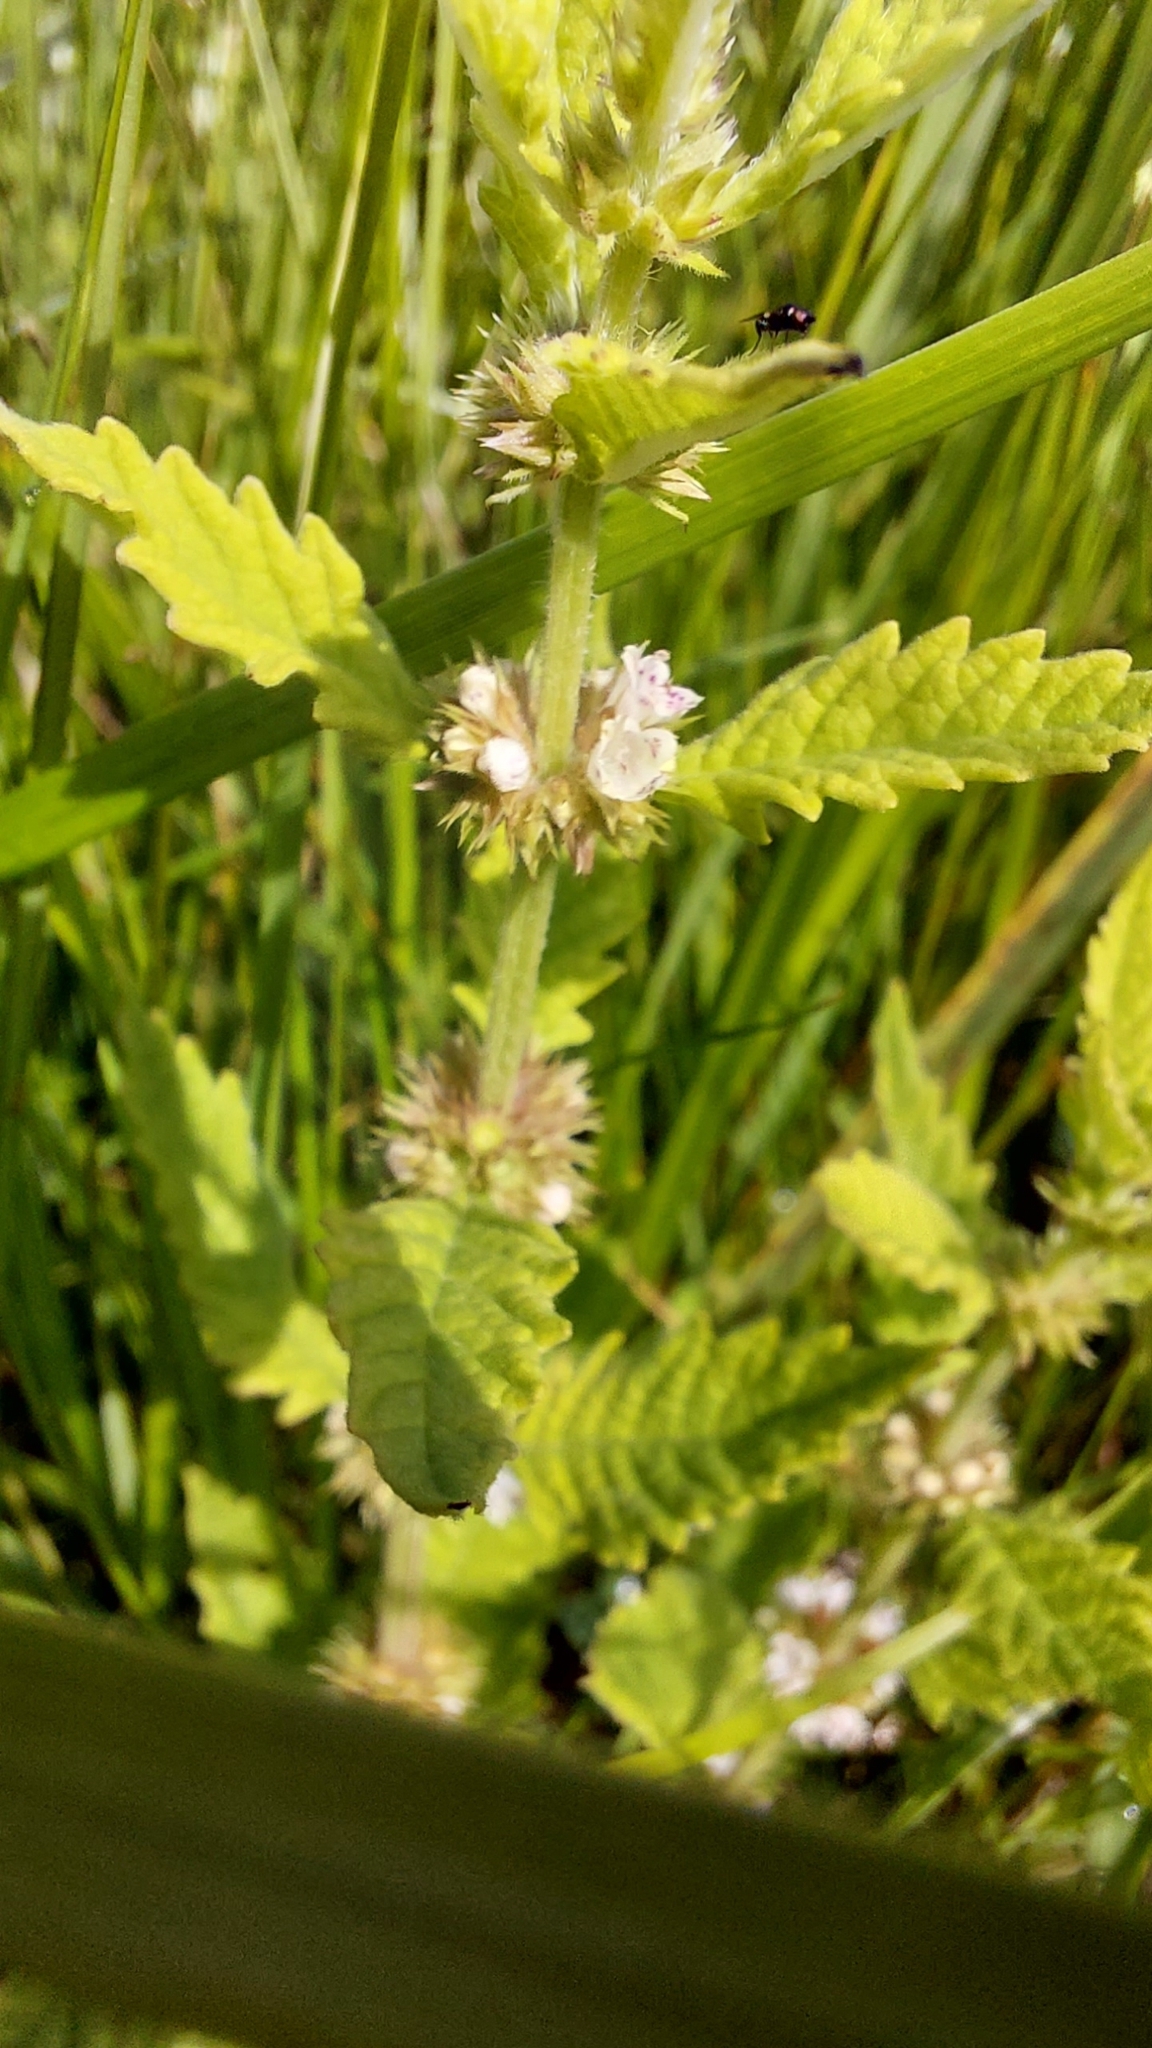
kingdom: Plantae
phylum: Tracheophyta
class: Magnoliopsida
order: Lamiales
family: Lamiaceae
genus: Lycopus
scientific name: Lycopus europaeus
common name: European bugleweed
